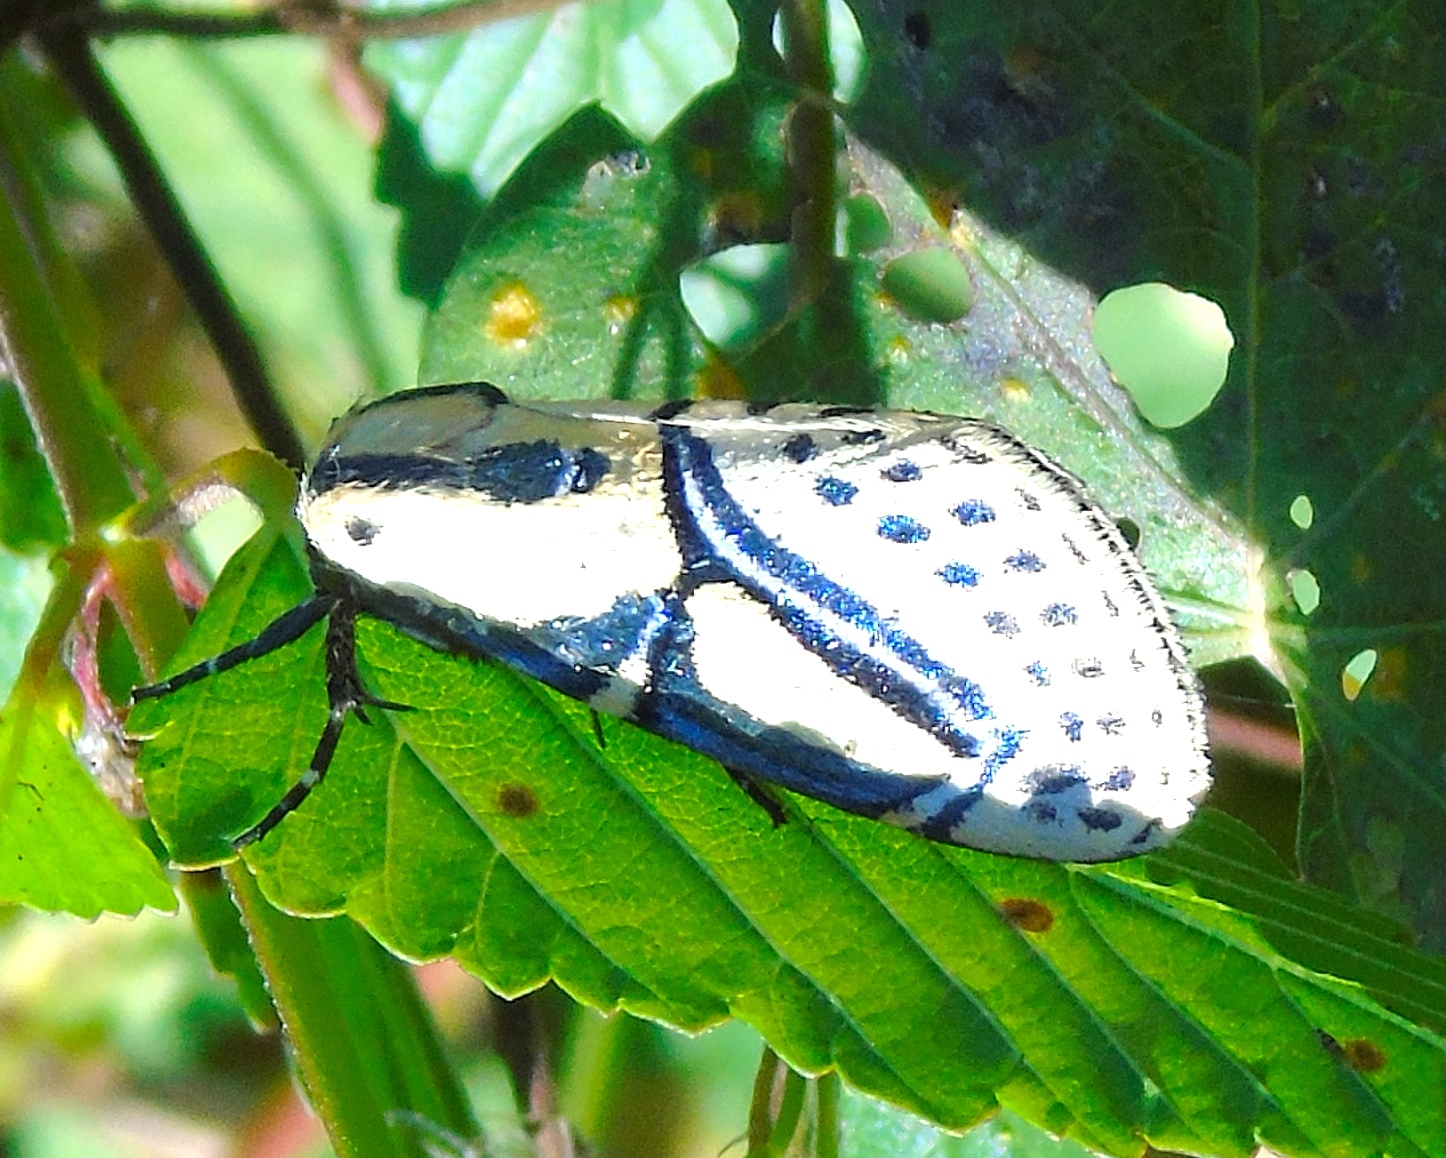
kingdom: Animalia
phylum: Arthropoda
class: Insecta
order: Lepidoptera
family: Erebidae
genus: Diphthera
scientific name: Diphthera festiva
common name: Hieroglyphic moth
